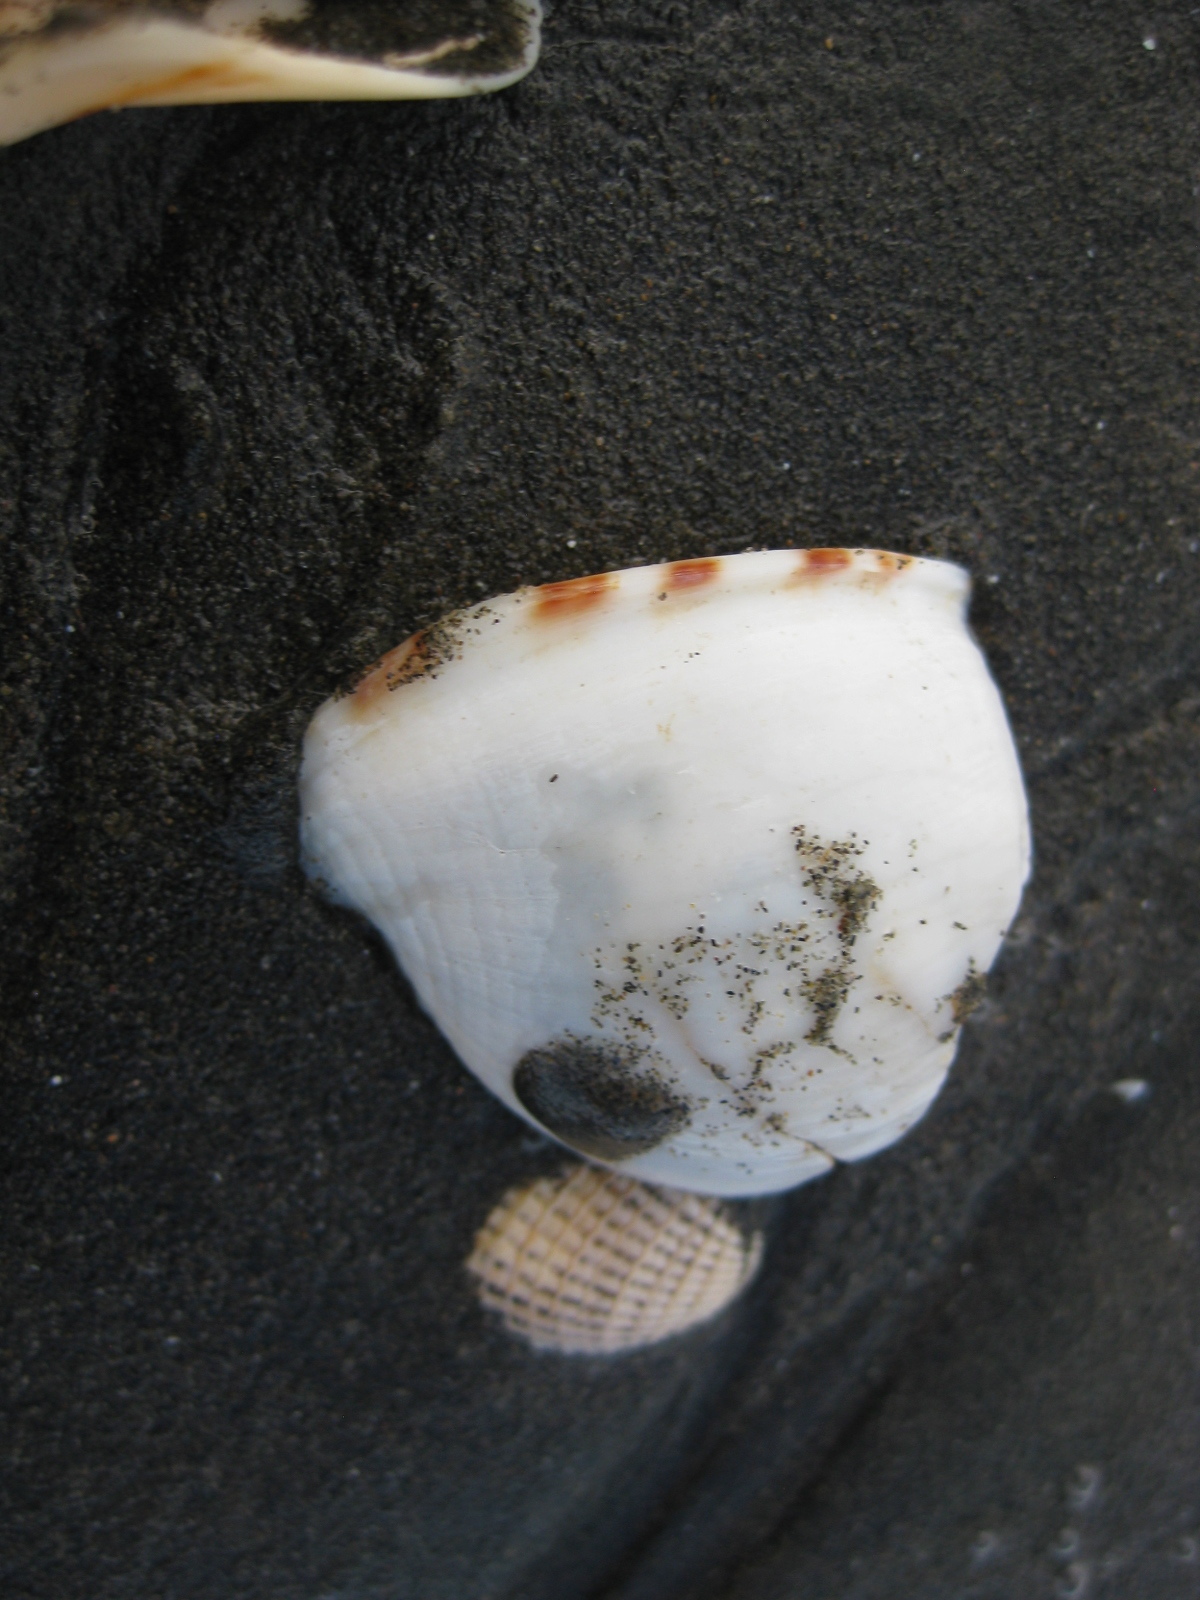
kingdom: Animalia
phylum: Mollusca
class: Gastropoda
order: Littorinimorpha
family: Cassidae
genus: Semicassis
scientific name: Semicassis pyrum
